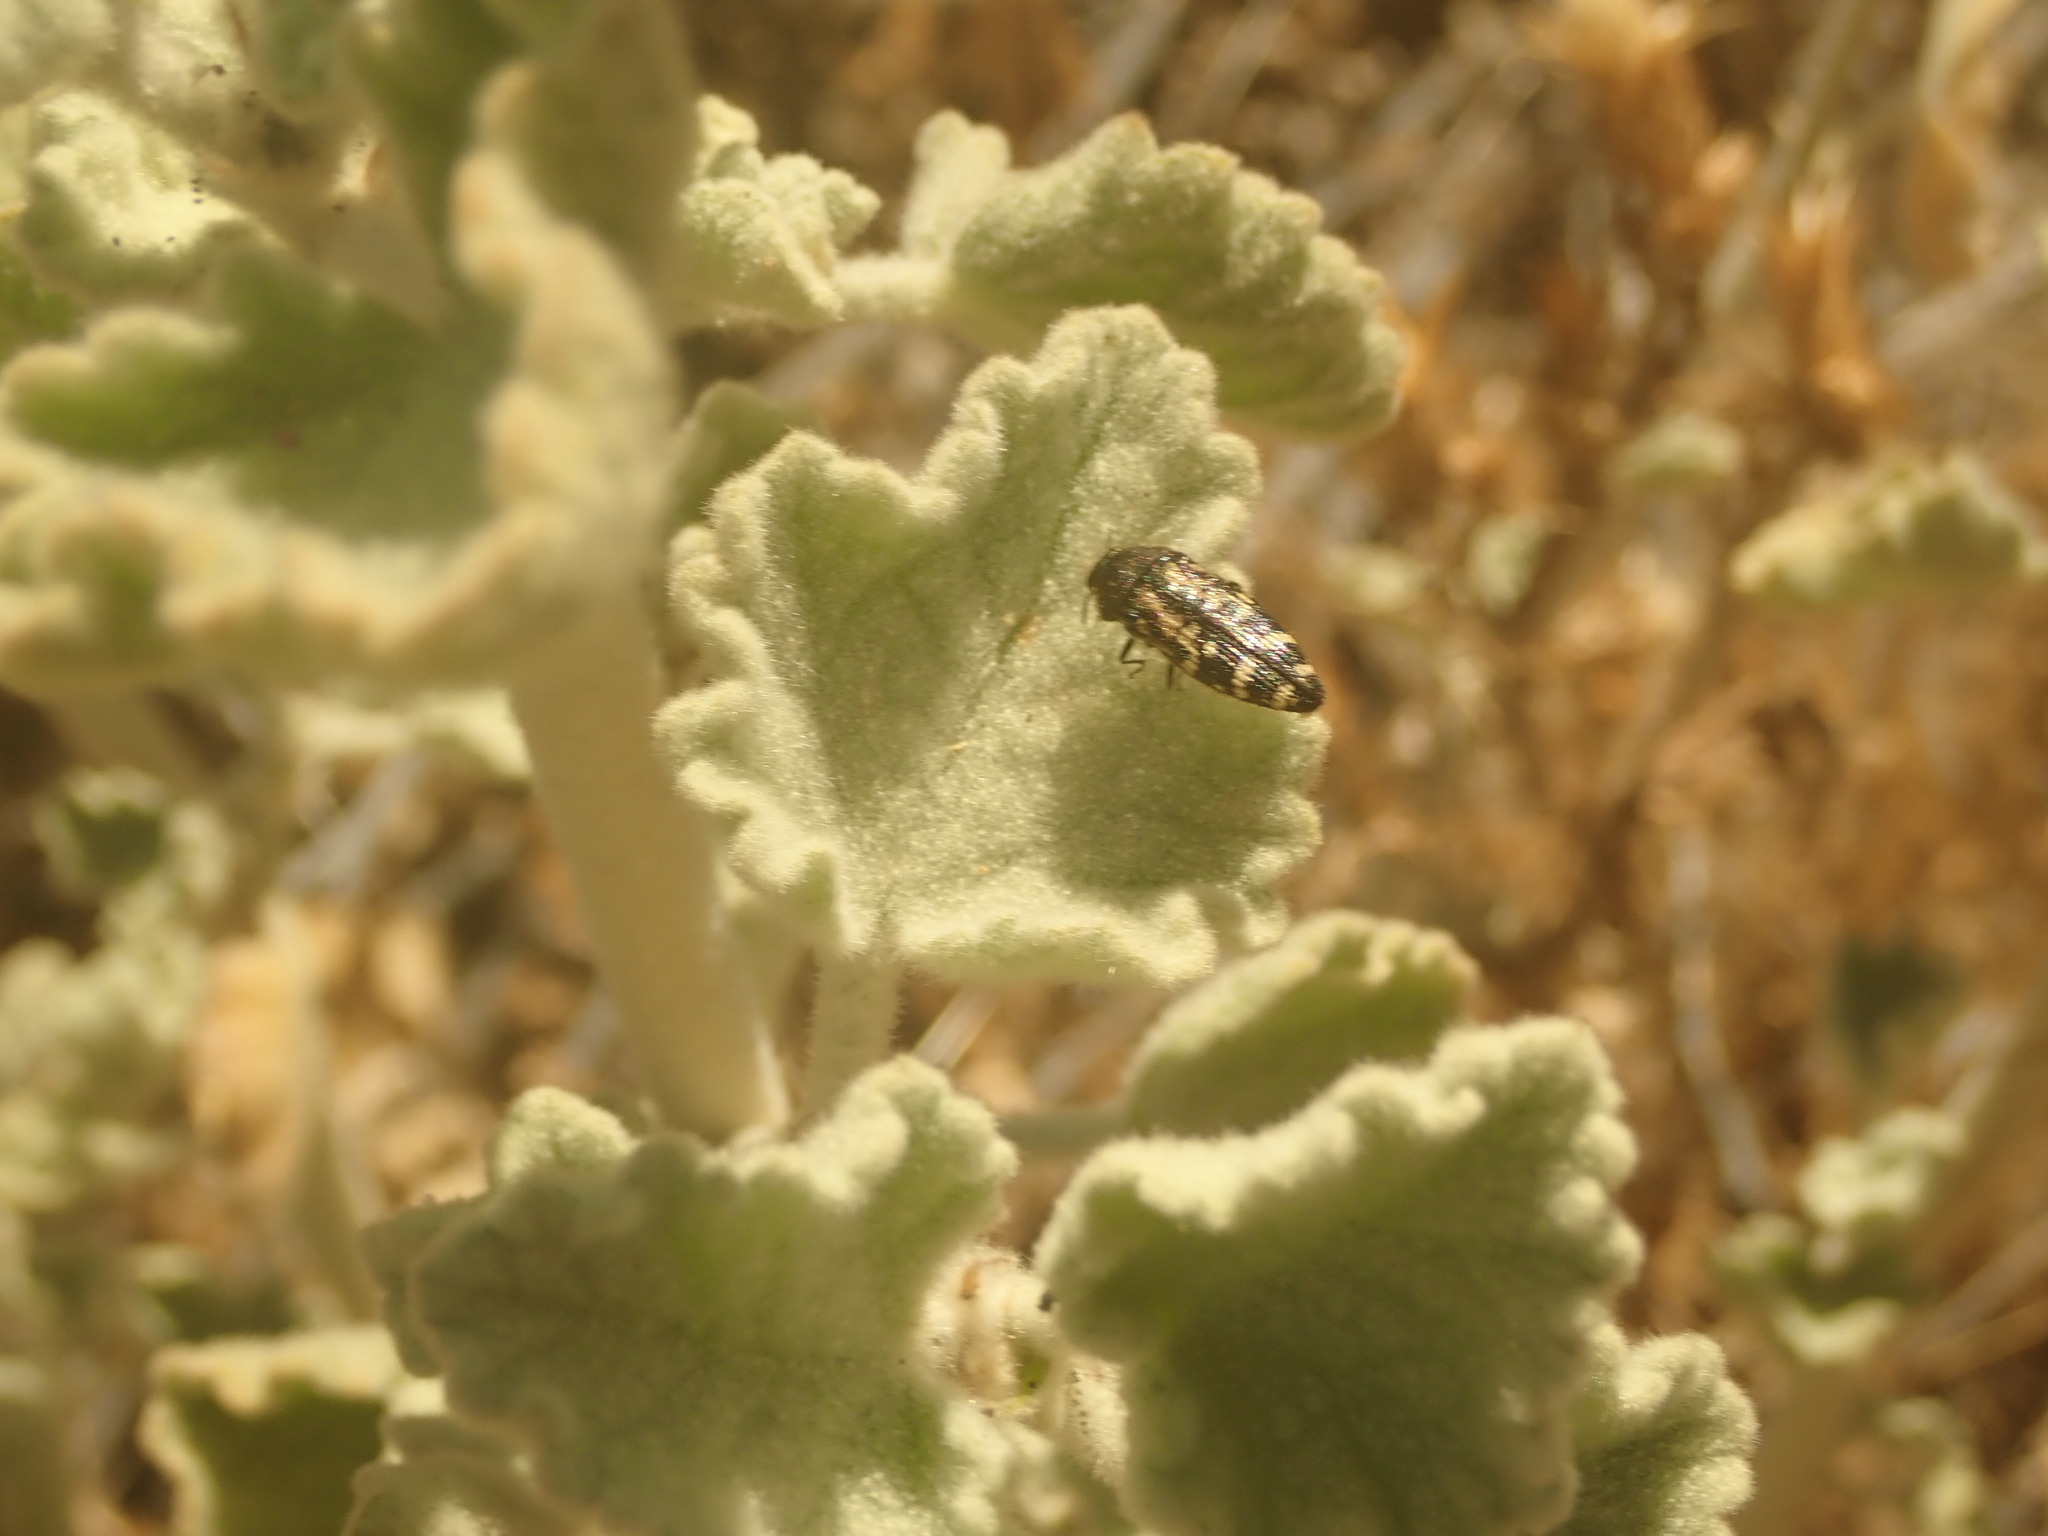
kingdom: Animalia
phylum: Arthropoda
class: Insecta
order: Coleoptera
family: Buprestidae
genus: Acmaeodera
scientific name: Acmaeodera connexa
